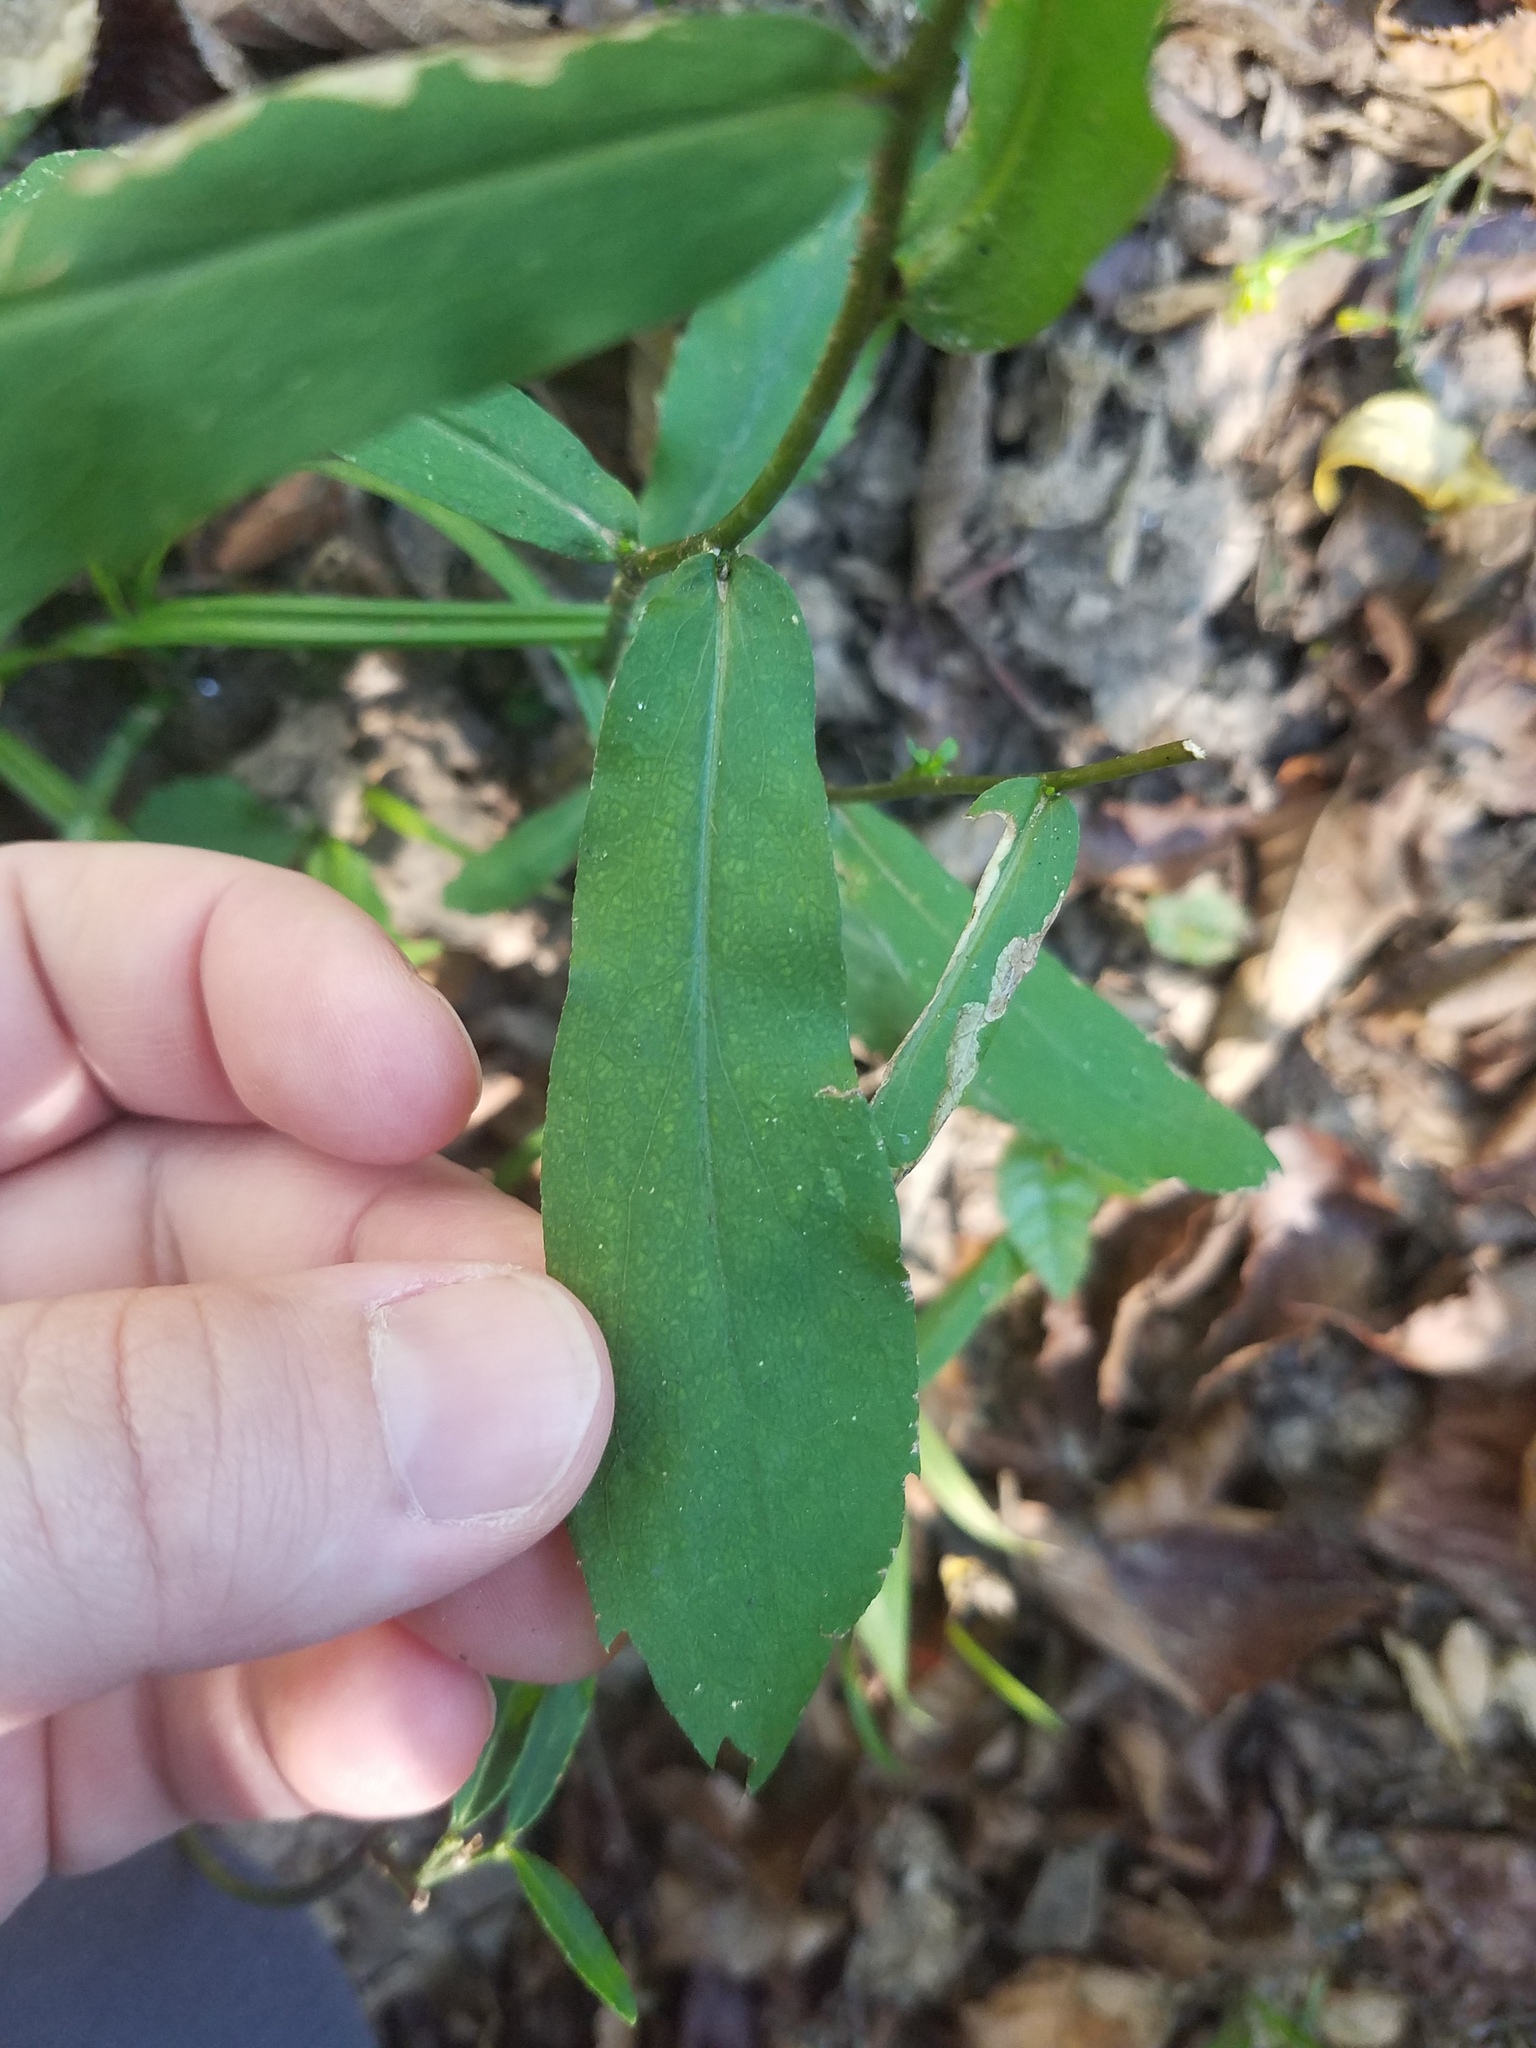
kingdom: Plantae
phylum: Tracheophyta
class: Magnoliopsida
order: Asterales
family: Asteraceae
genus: Solidago
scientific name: Solidago caesia
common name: Woodland goldenrod
